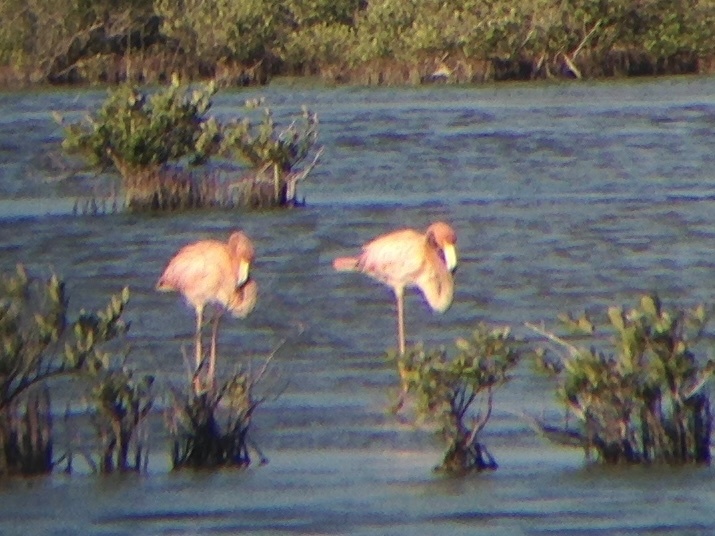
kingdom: Animalia
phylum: Chordata
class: Aves
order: Phoenicopteriformes
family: Phoenicopteridae
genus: Phoenicopterus
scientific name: Phoenicopterus ruber
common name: American flamingo
